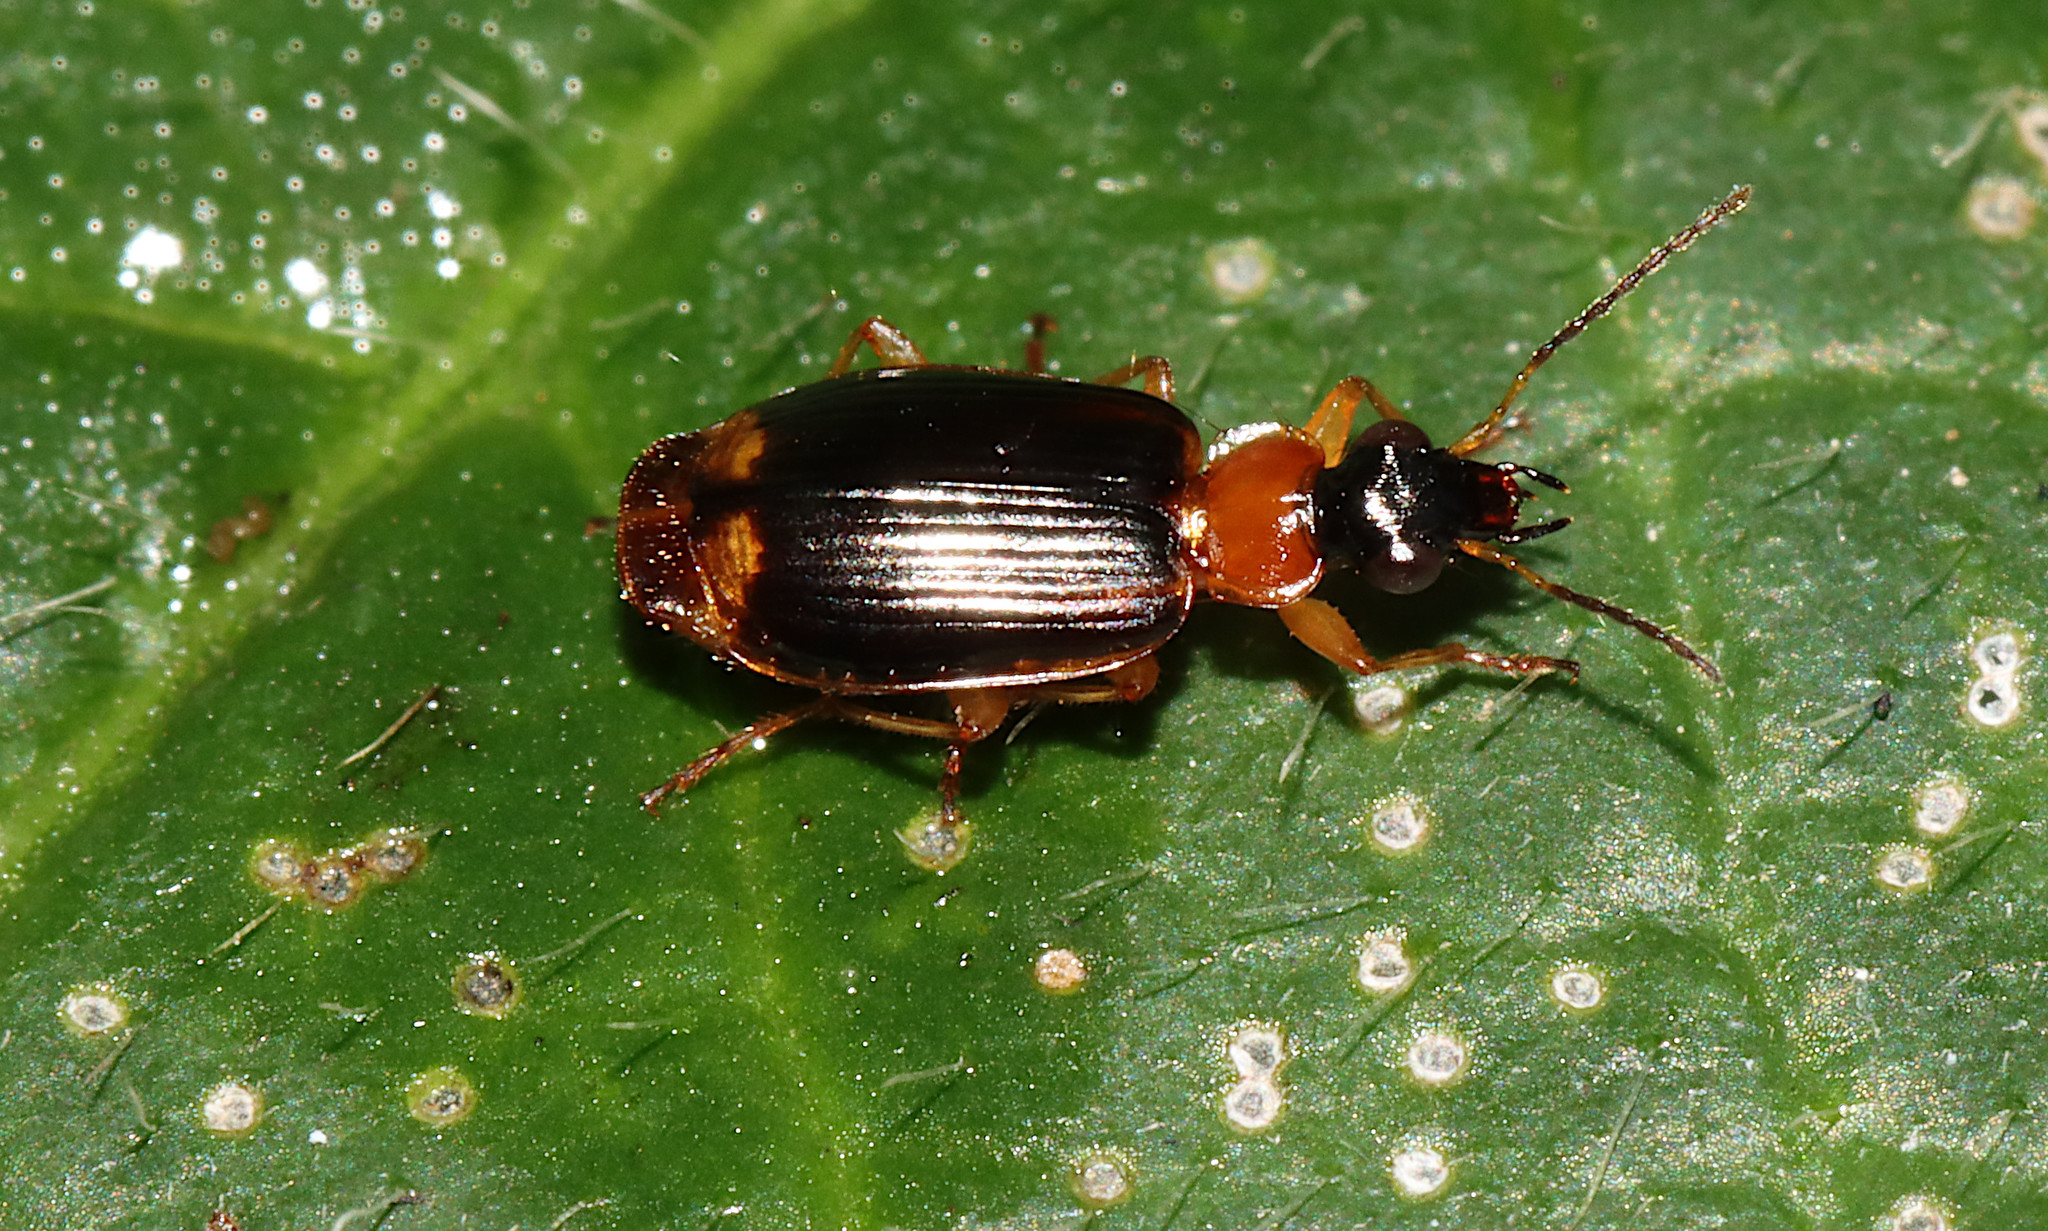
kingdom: Animalia
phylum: Arthropoda
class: Insecta
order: Coleoptera
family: Carabidae
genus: Lebia
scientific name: Lebia analis
